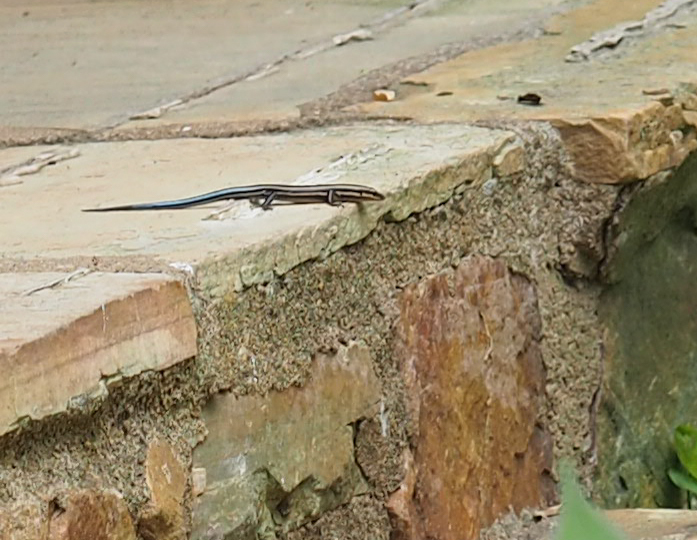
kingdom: Animalia
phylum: Chordata
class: Squamata
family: Scincidae
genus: Plestiodon
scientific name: Plestiodon fasciatus
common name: Five-lined skink
